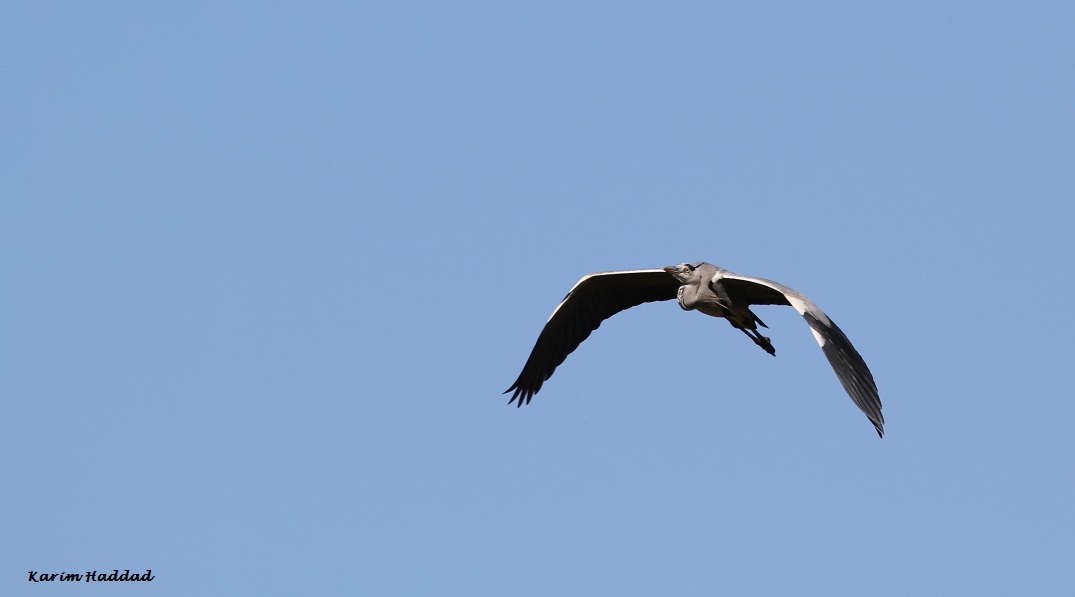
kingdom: Animalia
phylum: Chordata
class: Aves
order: Pelecaniformes
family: Ardeidae
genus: Ardea
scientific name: Ardea cinerea
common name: Grey heron
